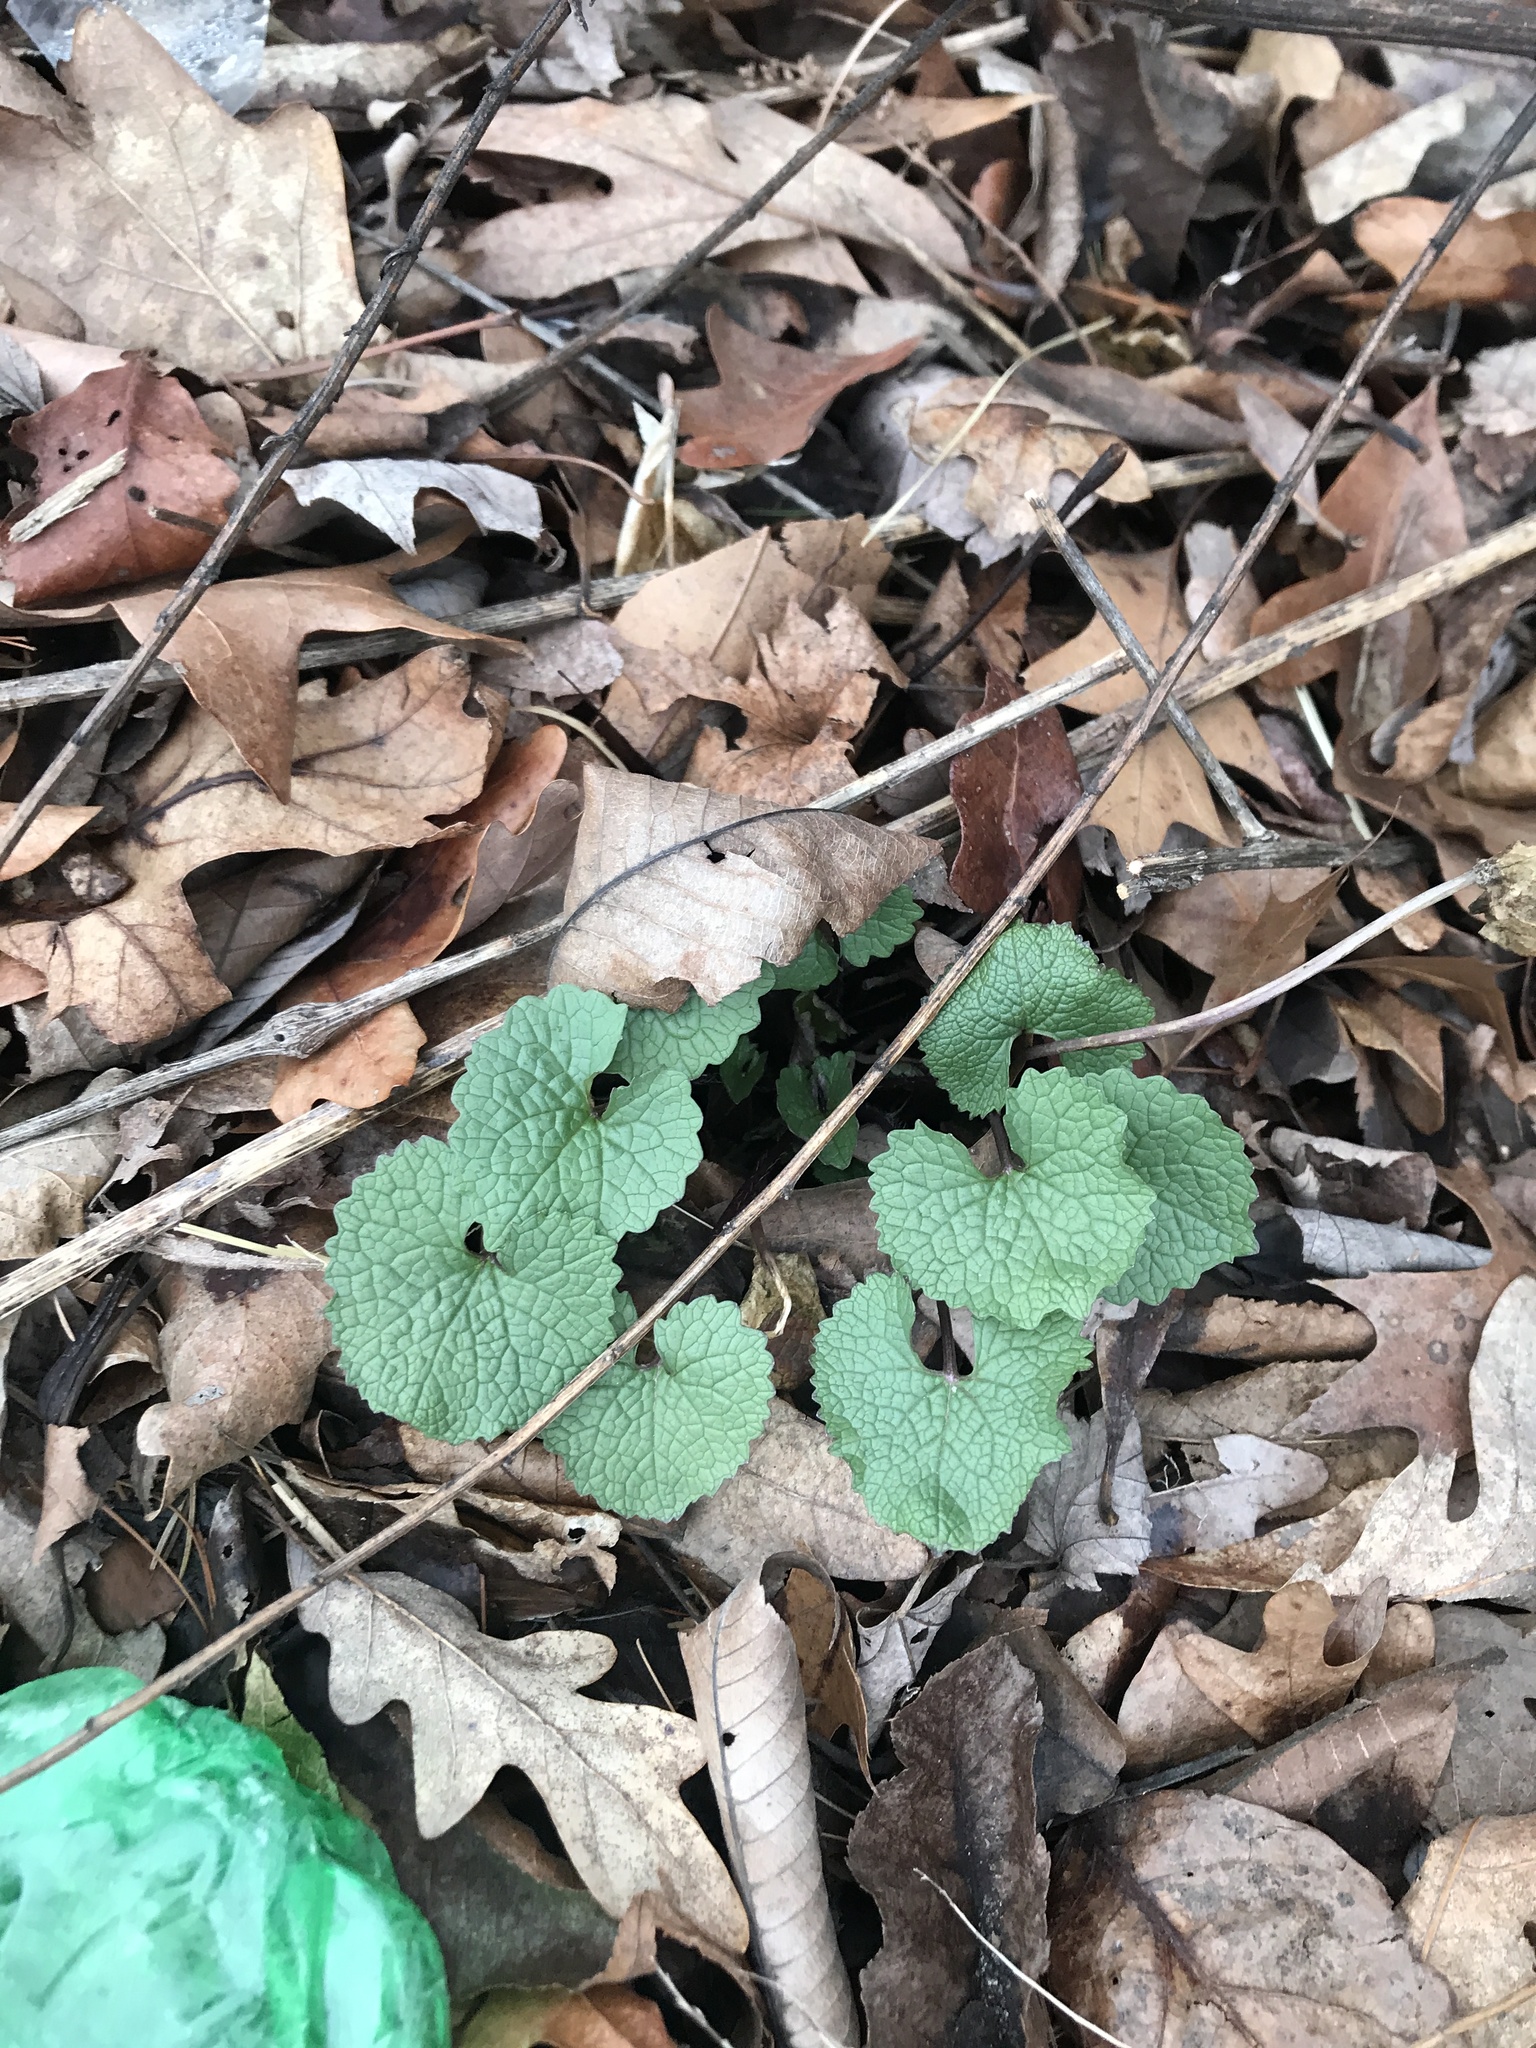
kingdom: Plantae
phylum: Tracheophyta
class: Magnoliopsida
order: Brassicales
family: Brassicaceae
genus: Alliaria
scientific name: Alliaria petiolata
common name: Garlic mustard
